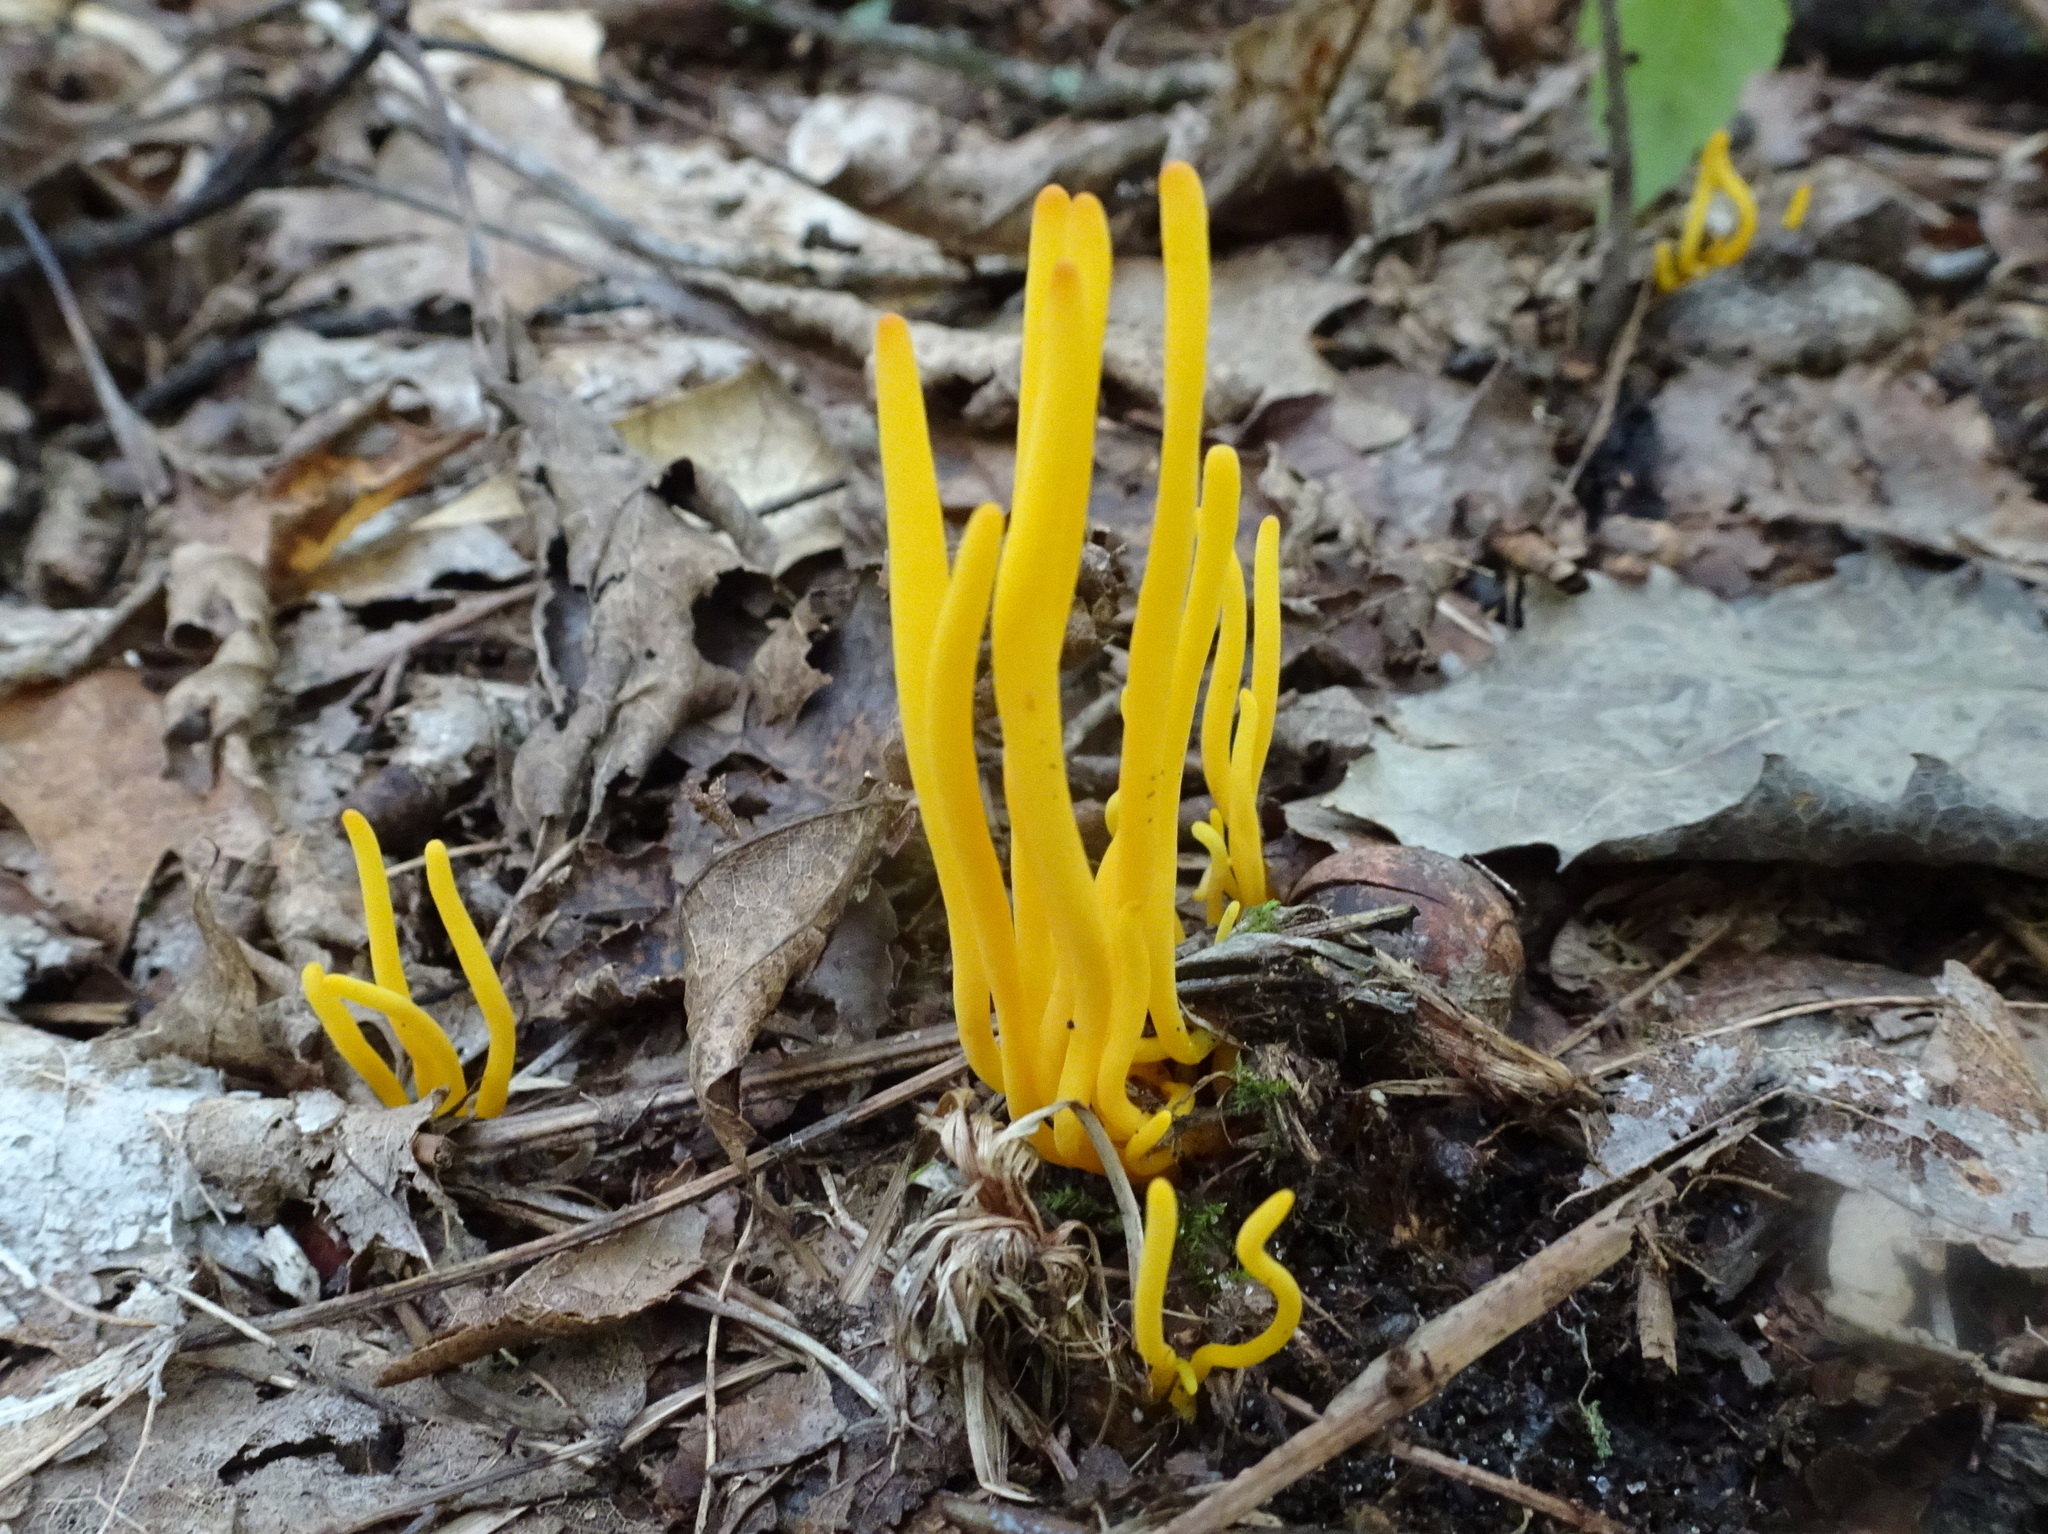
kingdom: Fungi
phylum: Basidiomycota
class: Agaricomycetes
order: Agaricales
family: Clavariaceae
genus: Clavulinopsis
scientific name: Clavulinopsis fusiformis
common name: Golden spindles
